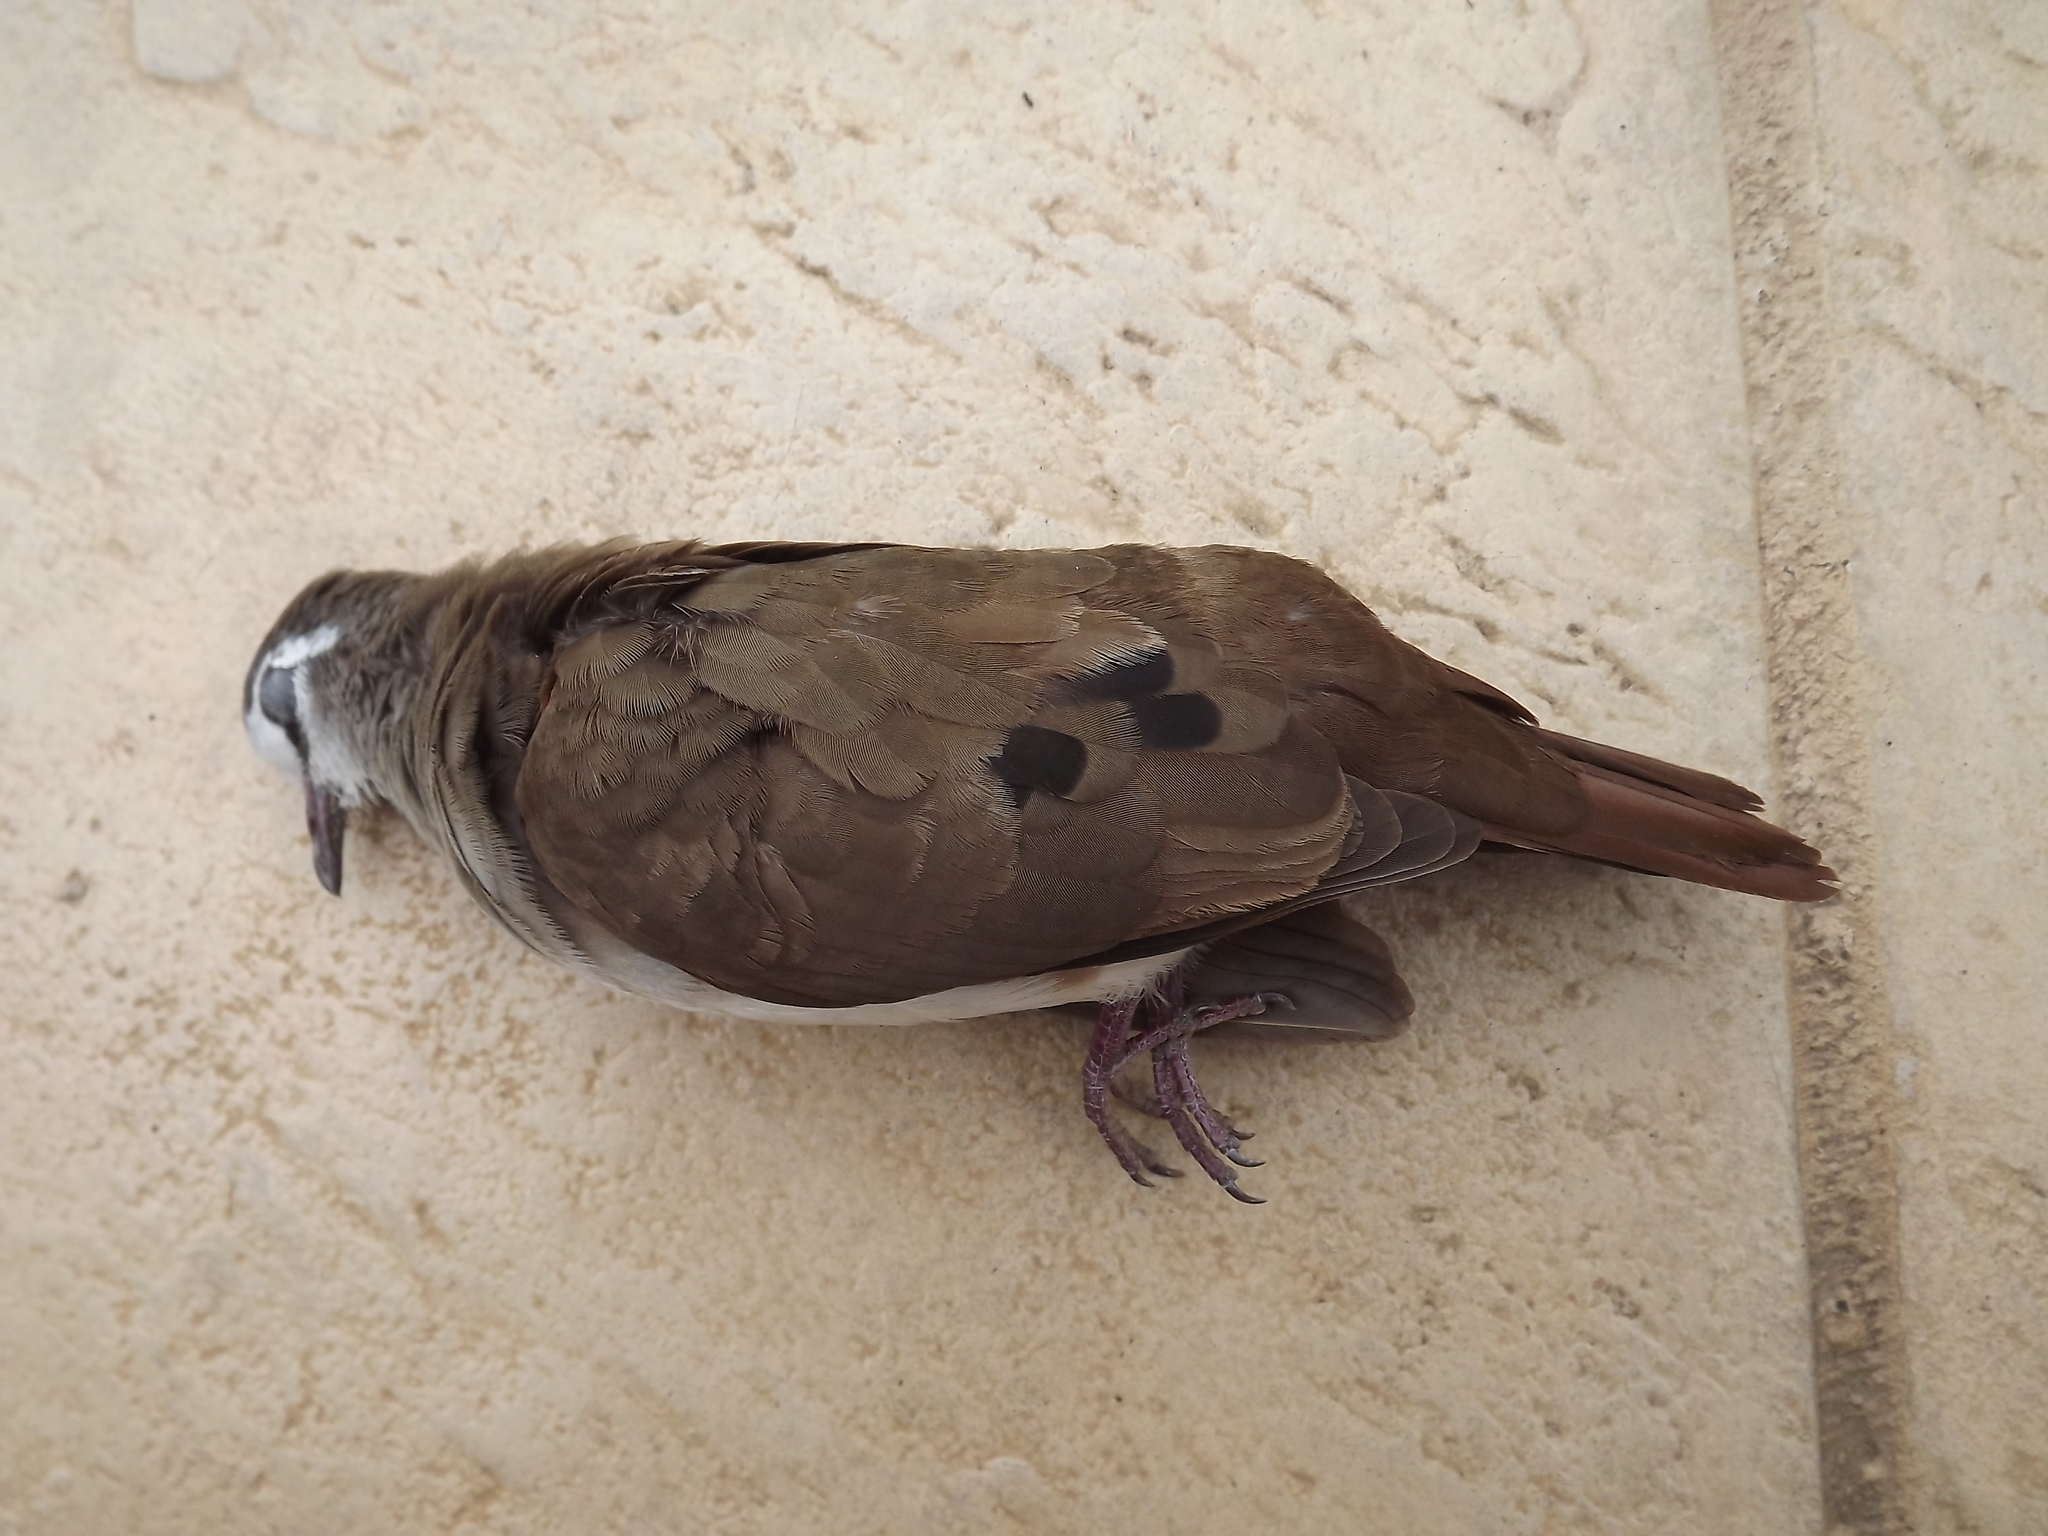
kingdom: Animalia
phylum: Chordata
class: Aves
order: Columbiformes
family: Columbidae
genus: Turtur
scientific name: Turtur tympanistria
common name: Tambourine dove
